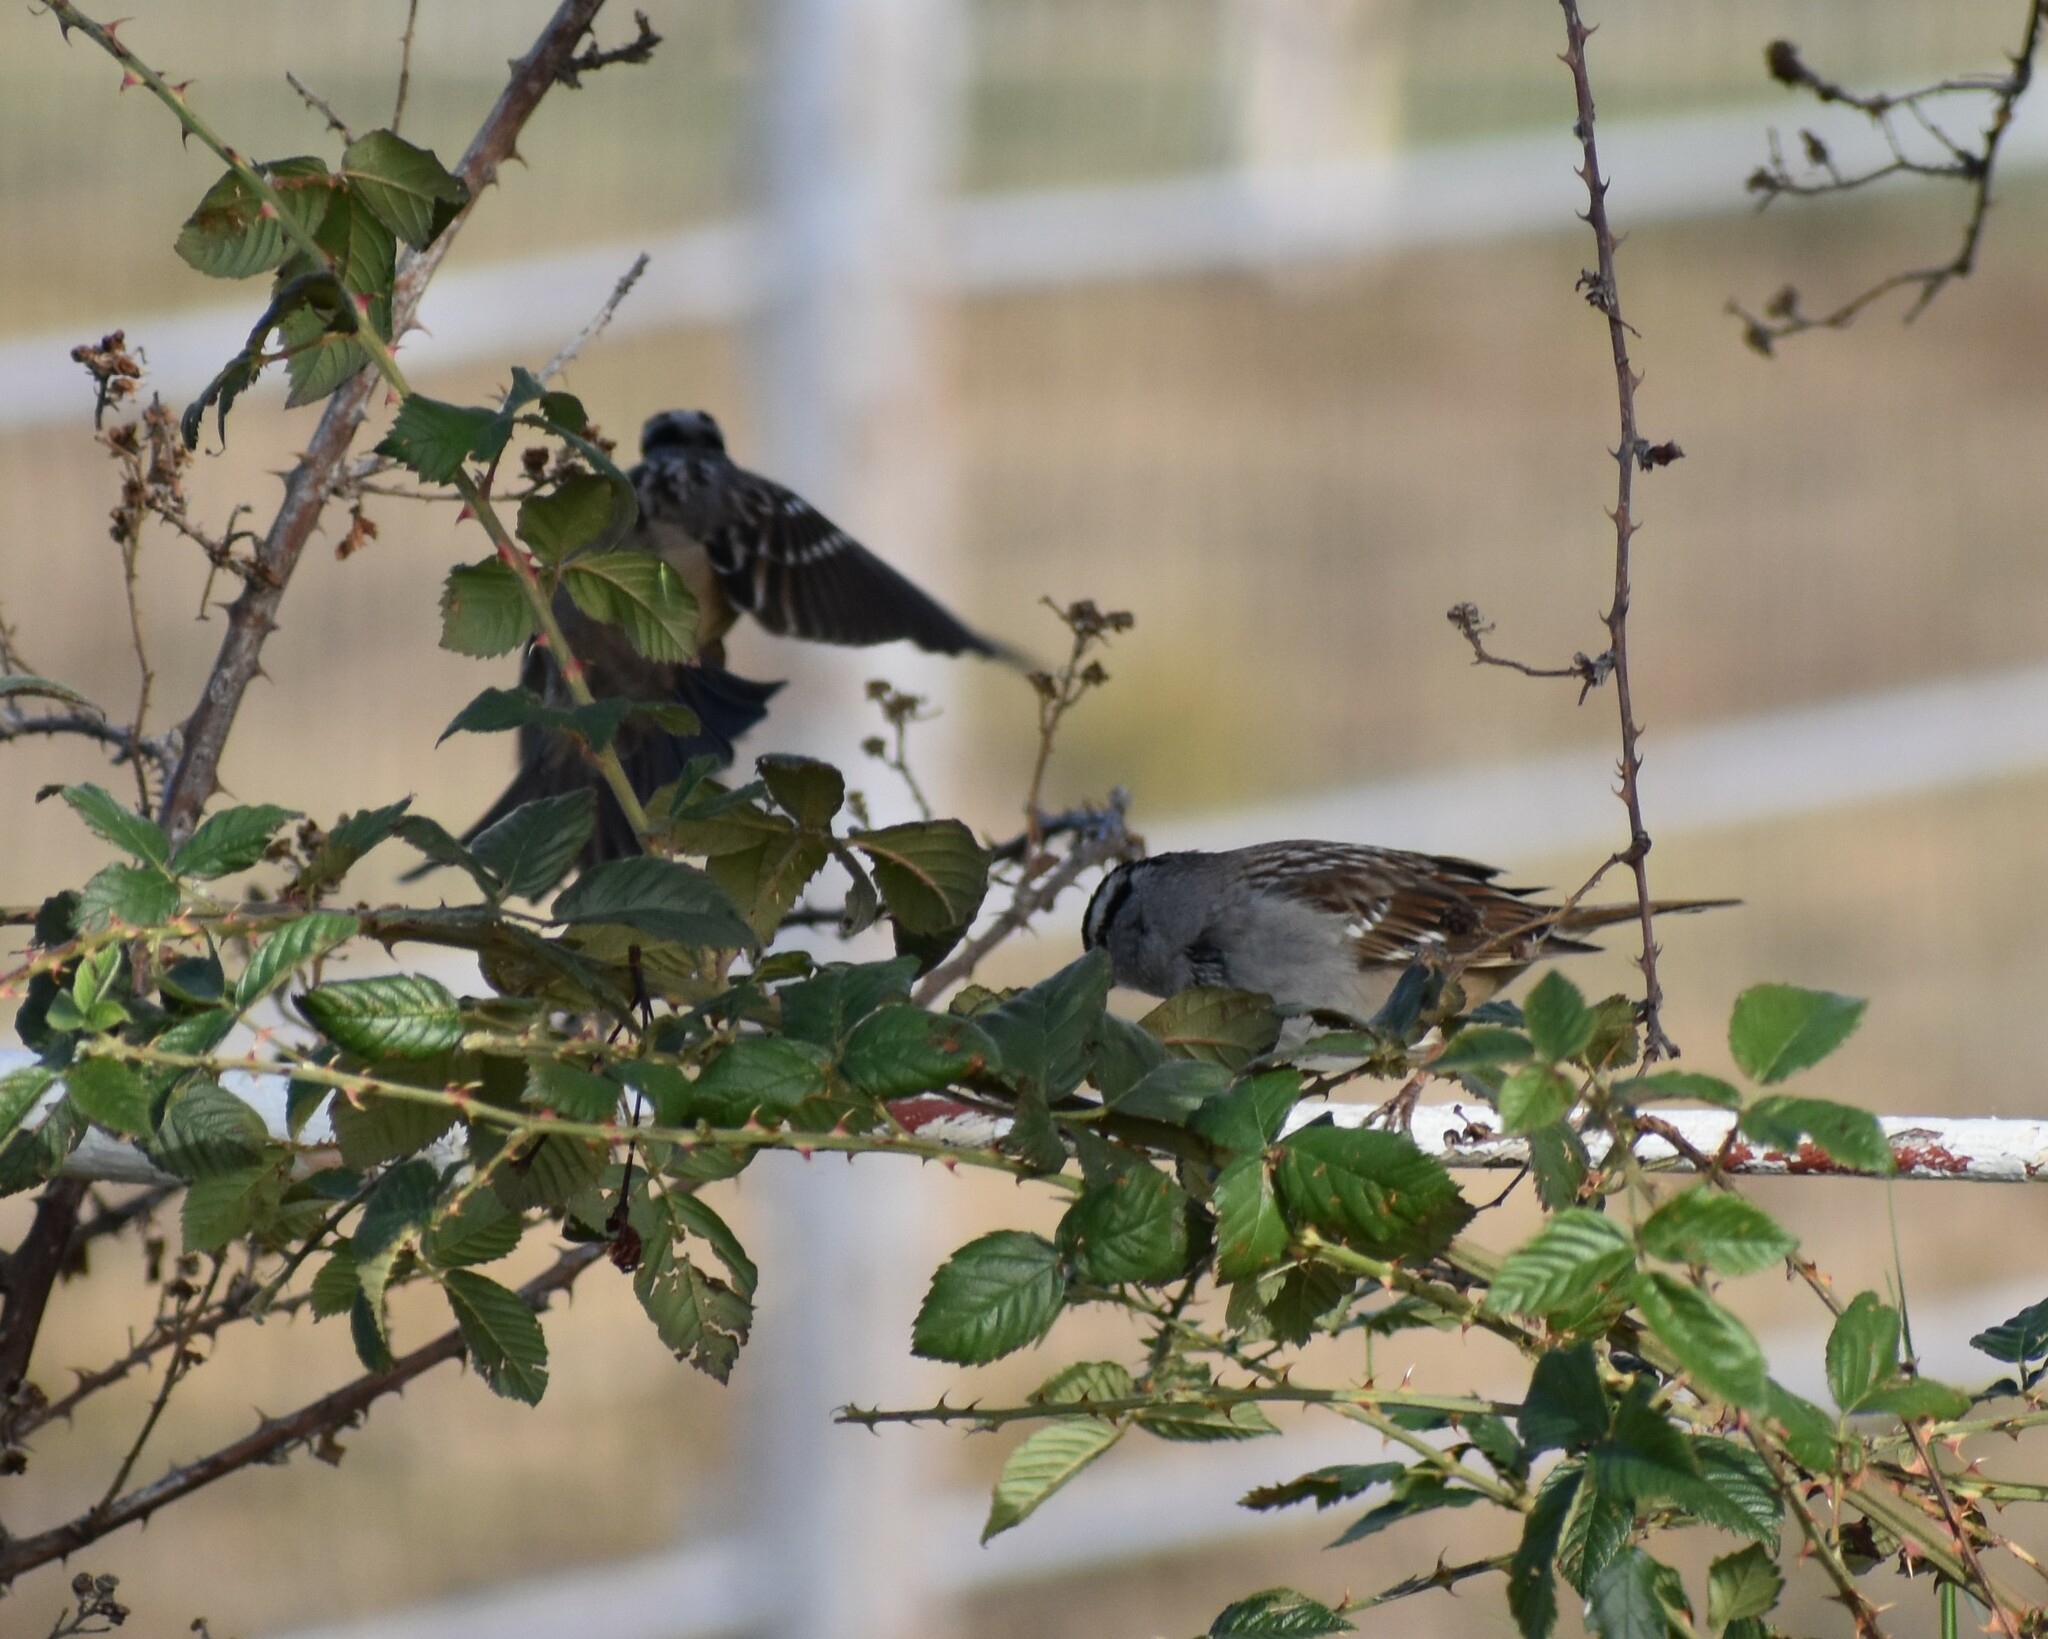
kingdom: Animalia
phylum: Chordata
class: Aves
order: Passeriformes
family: Passerellidae
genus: Zonotrichia
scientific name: Zonotrichia leucophrys
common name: White-crowned sparrow
